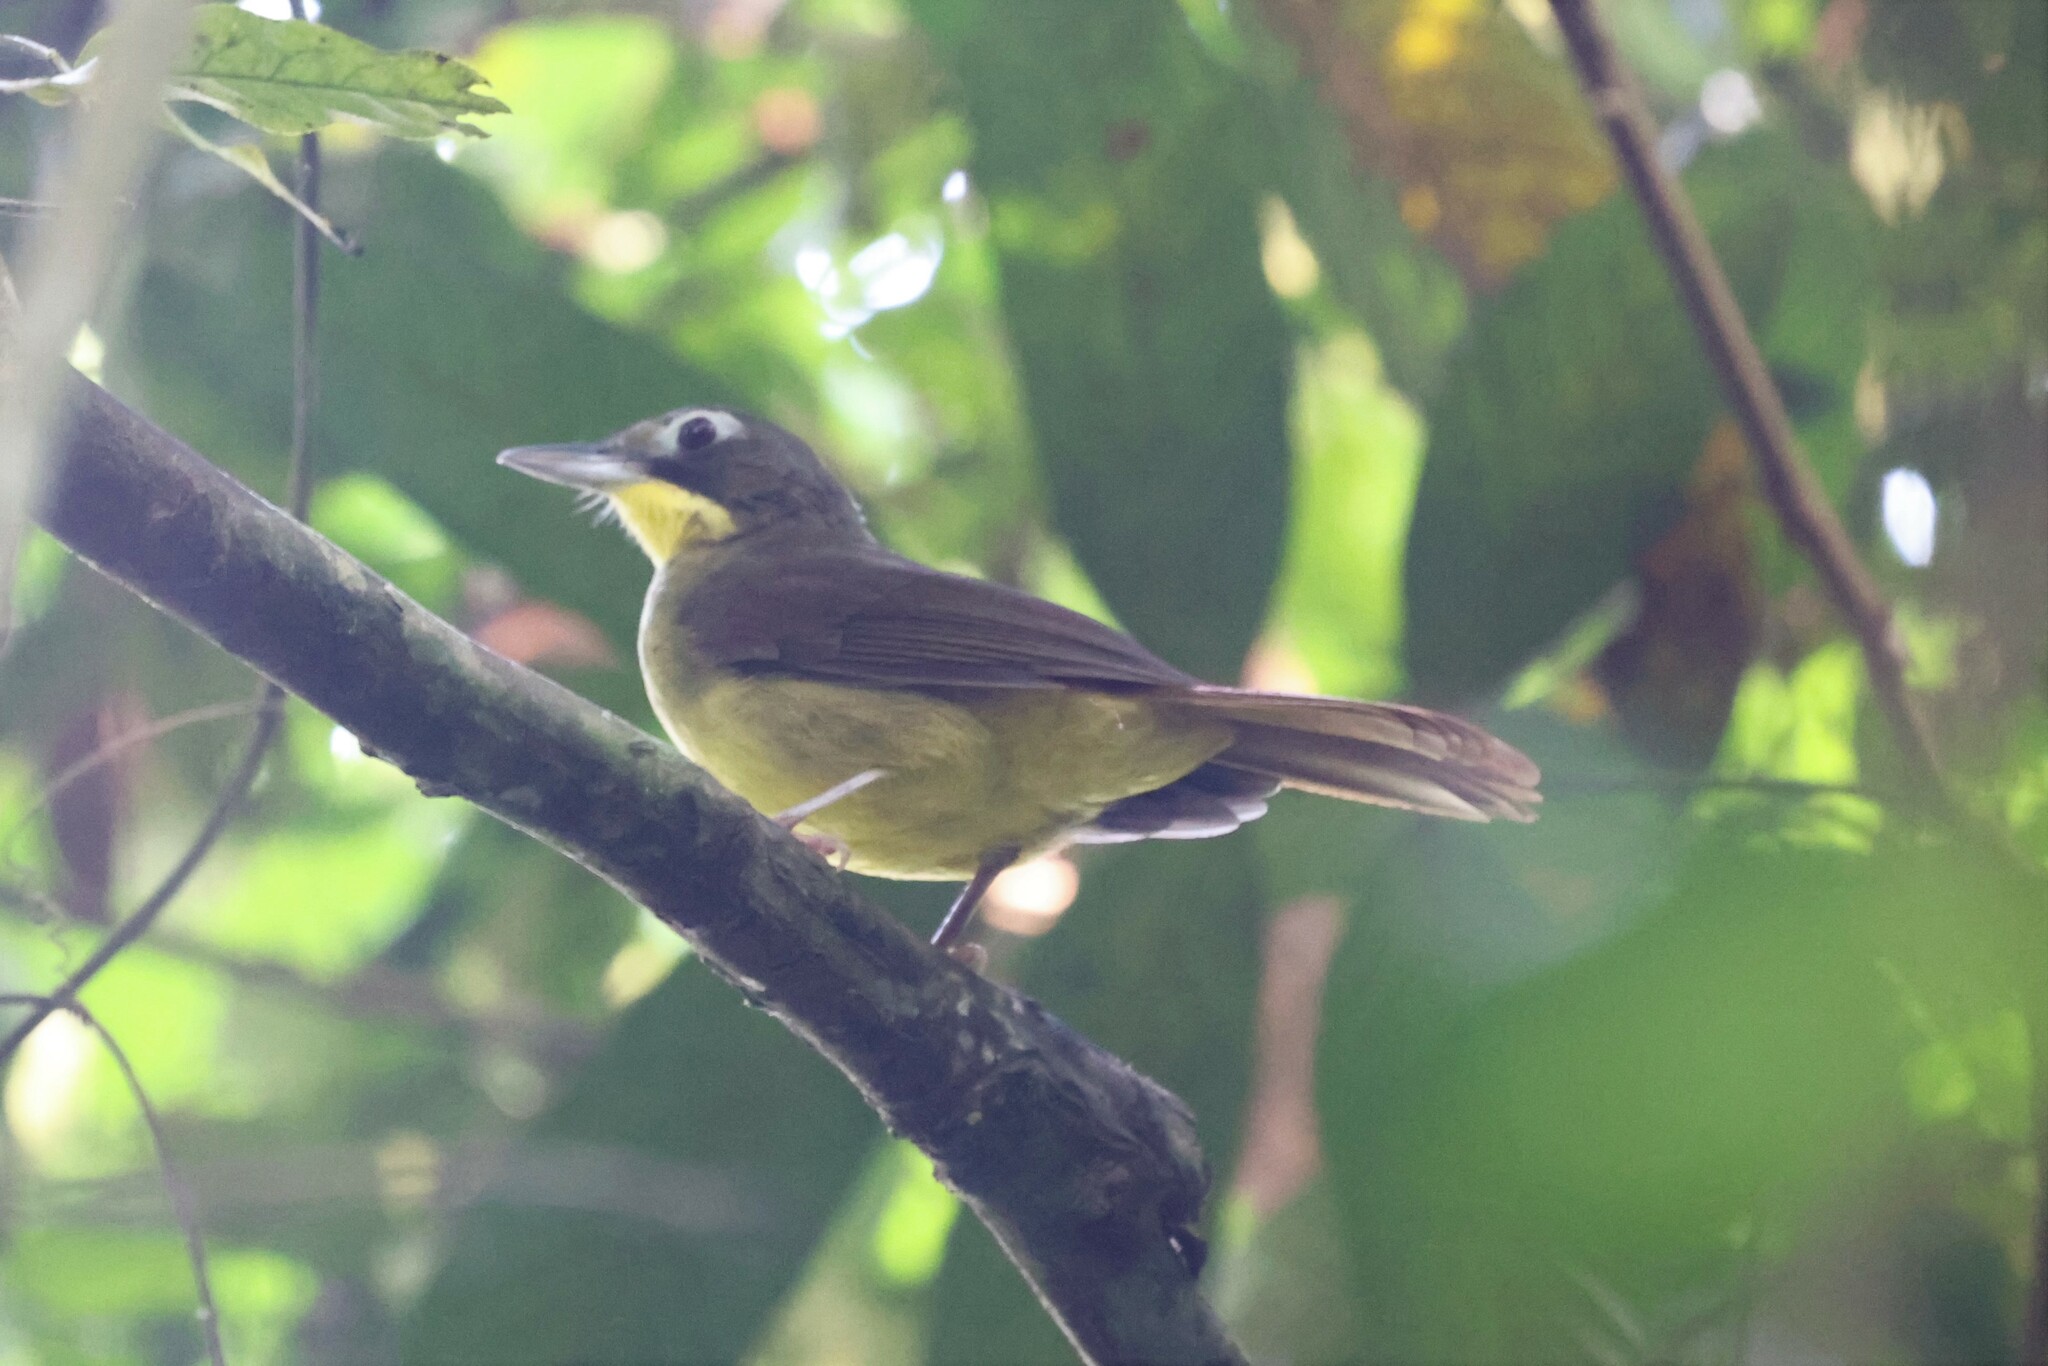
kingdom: Animalia
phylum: Chordata
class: Aves
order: Passeriformes
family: Pycnonotidae
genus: Bleda
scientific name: Bleda syndactylus
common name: Red-tailed bristlebill
